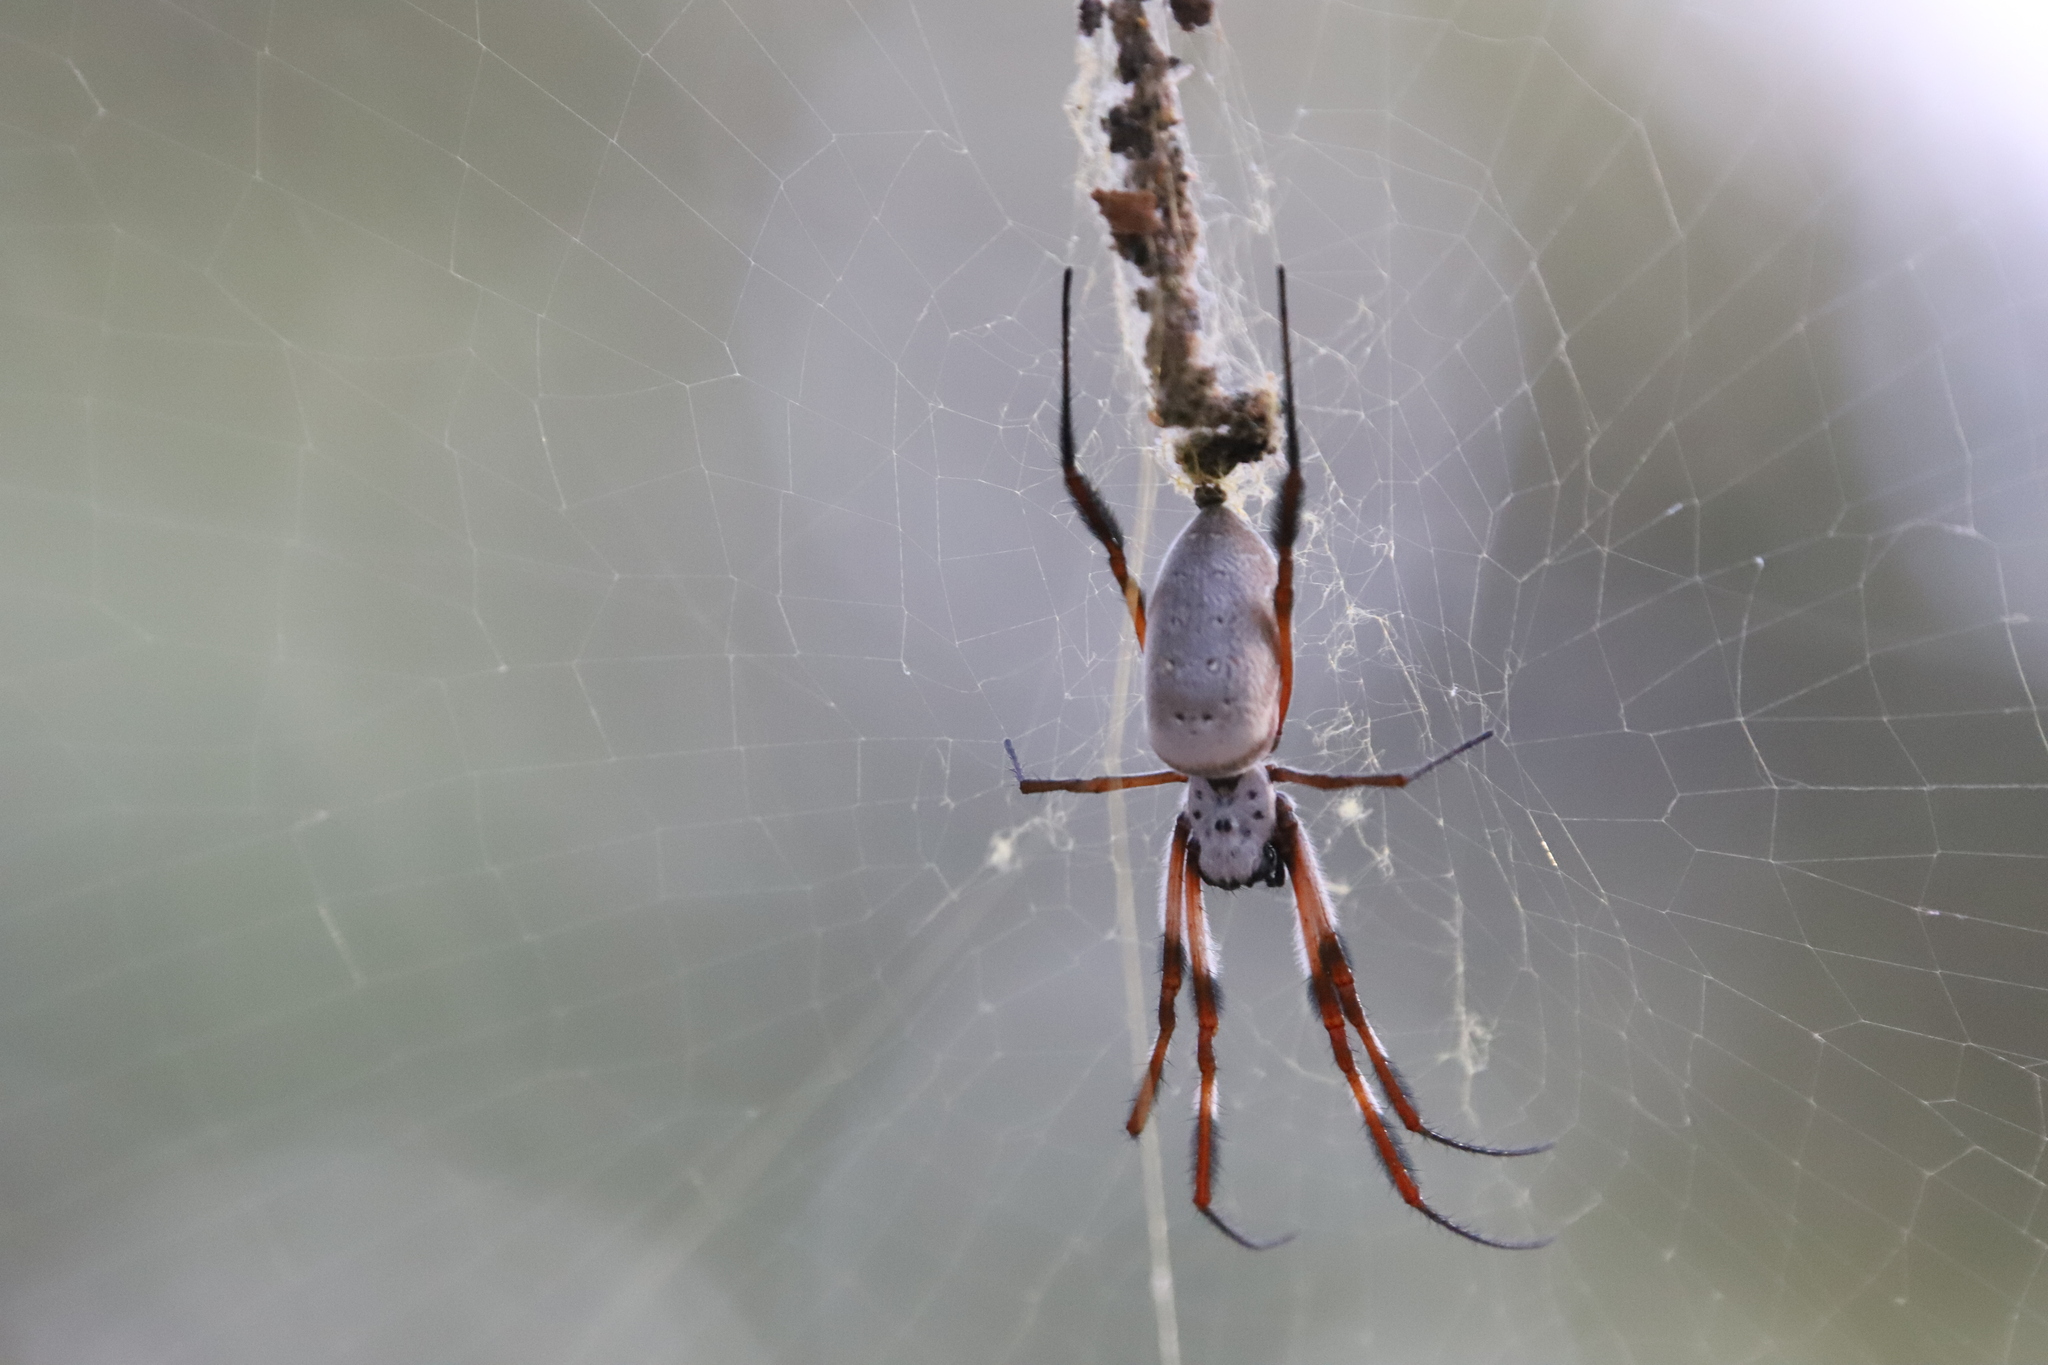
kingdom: Animalia
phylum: Arthropoda
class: Arachnida
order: Araneae
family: Araneidae
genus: Trichonephila
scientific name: Trichonephila edulis
